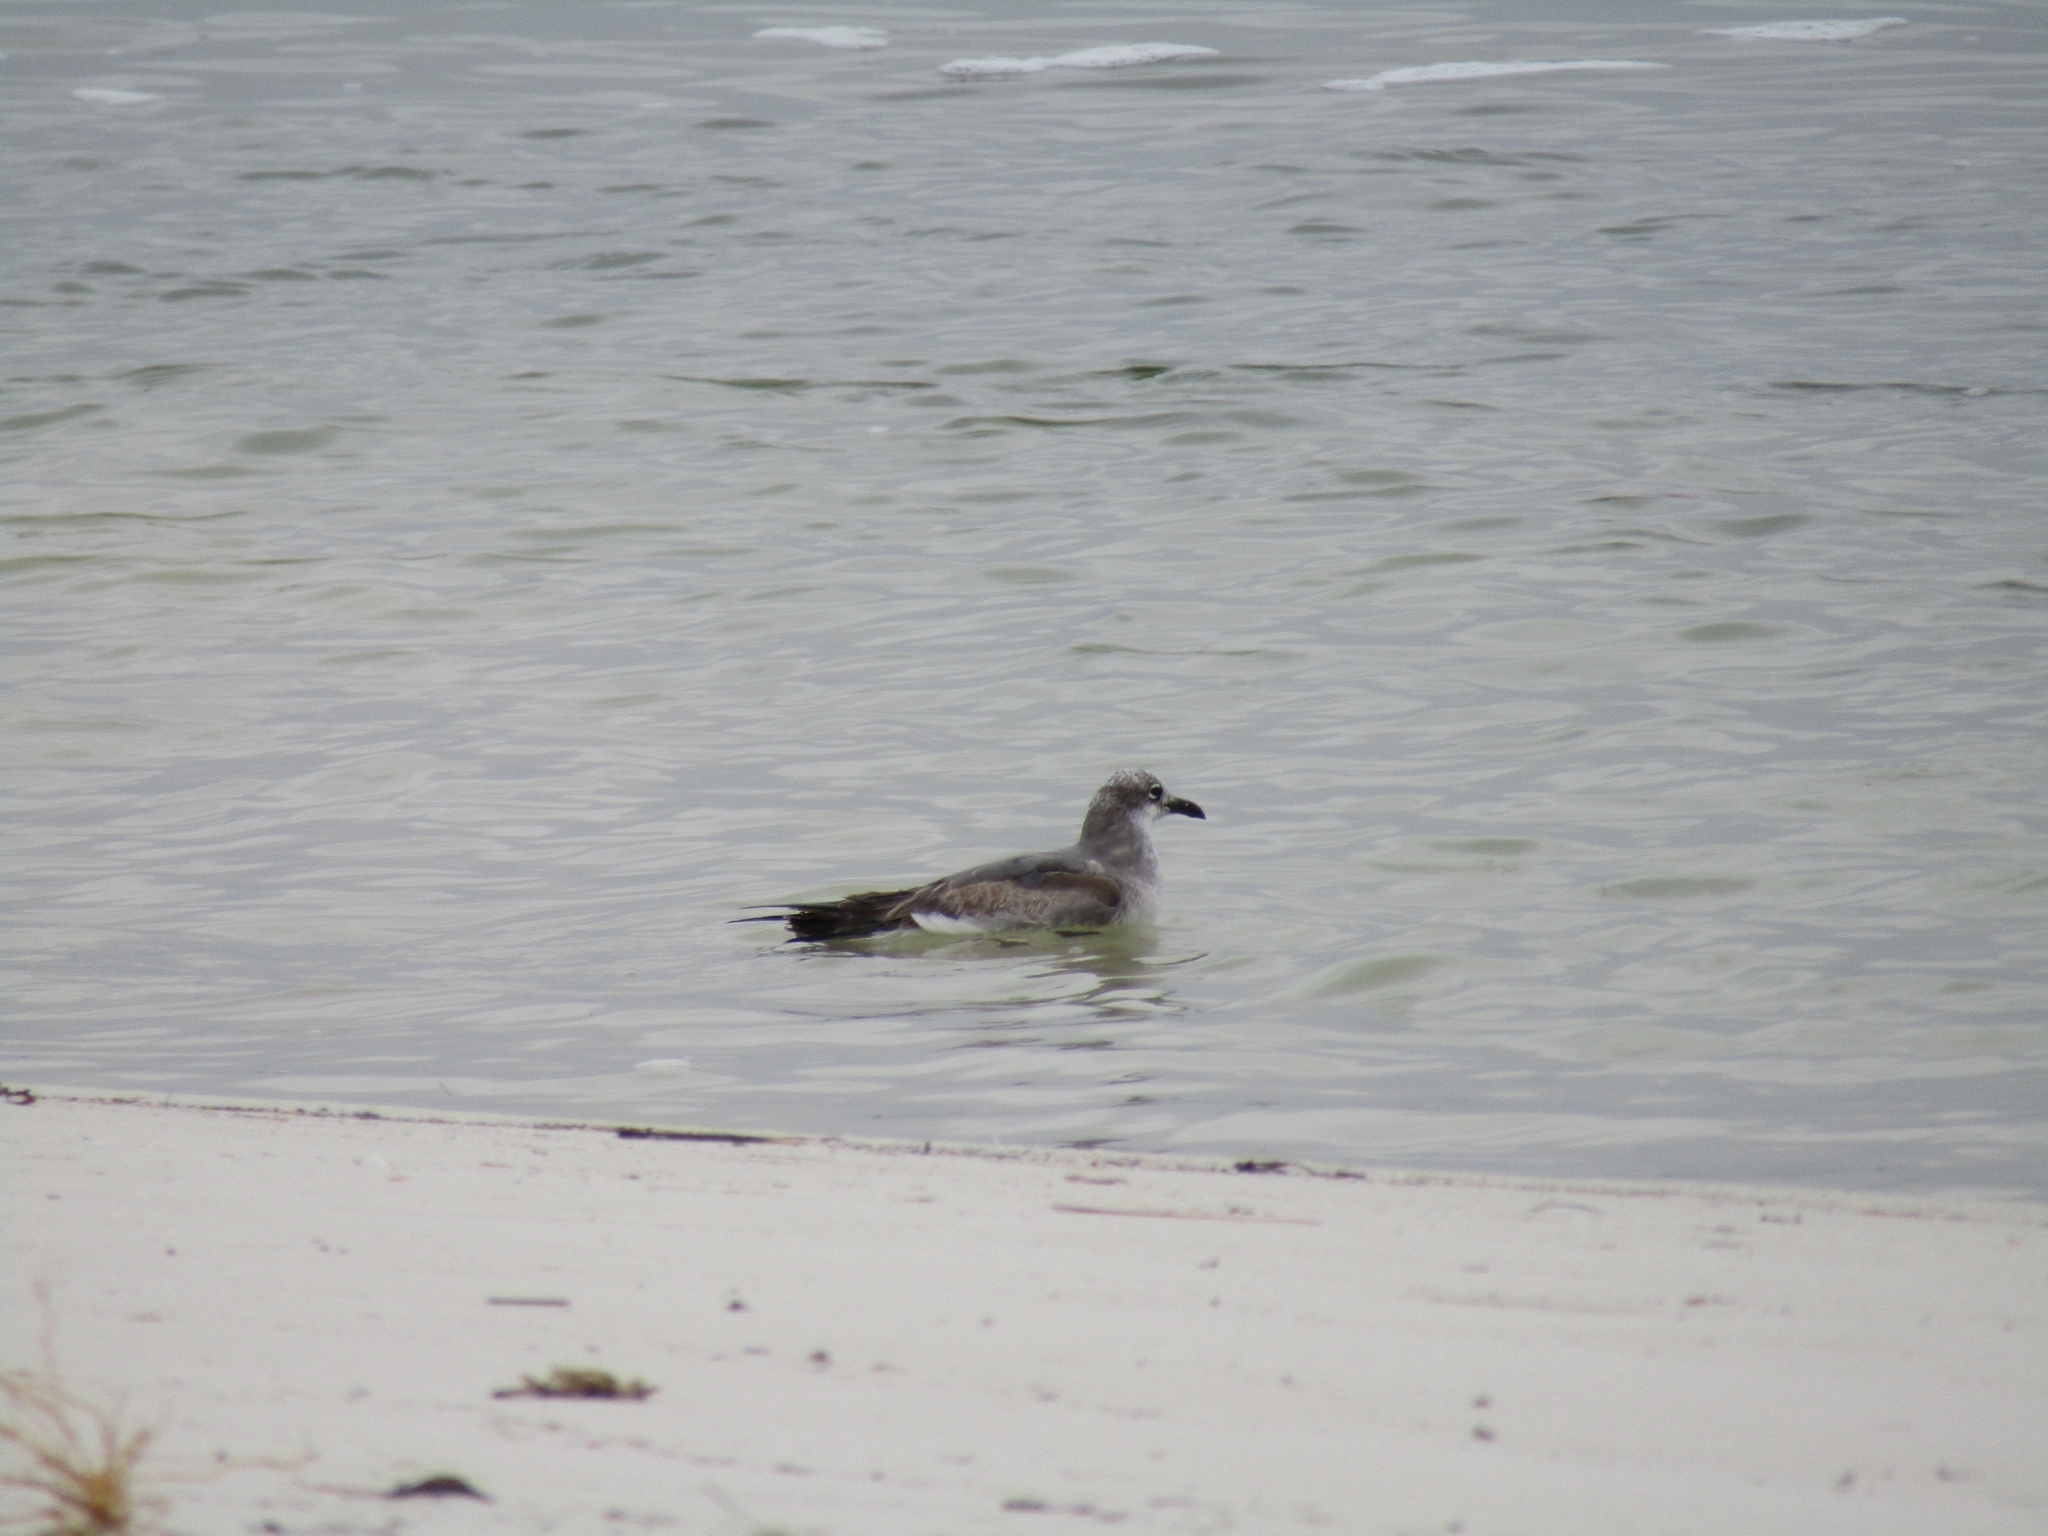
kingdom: Animalia
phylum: Chordata
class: Aves
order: Charadriiformes
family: Laridae
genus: Leucophaeus
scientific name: Leucophaeus atricilla
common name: Laughing gull
